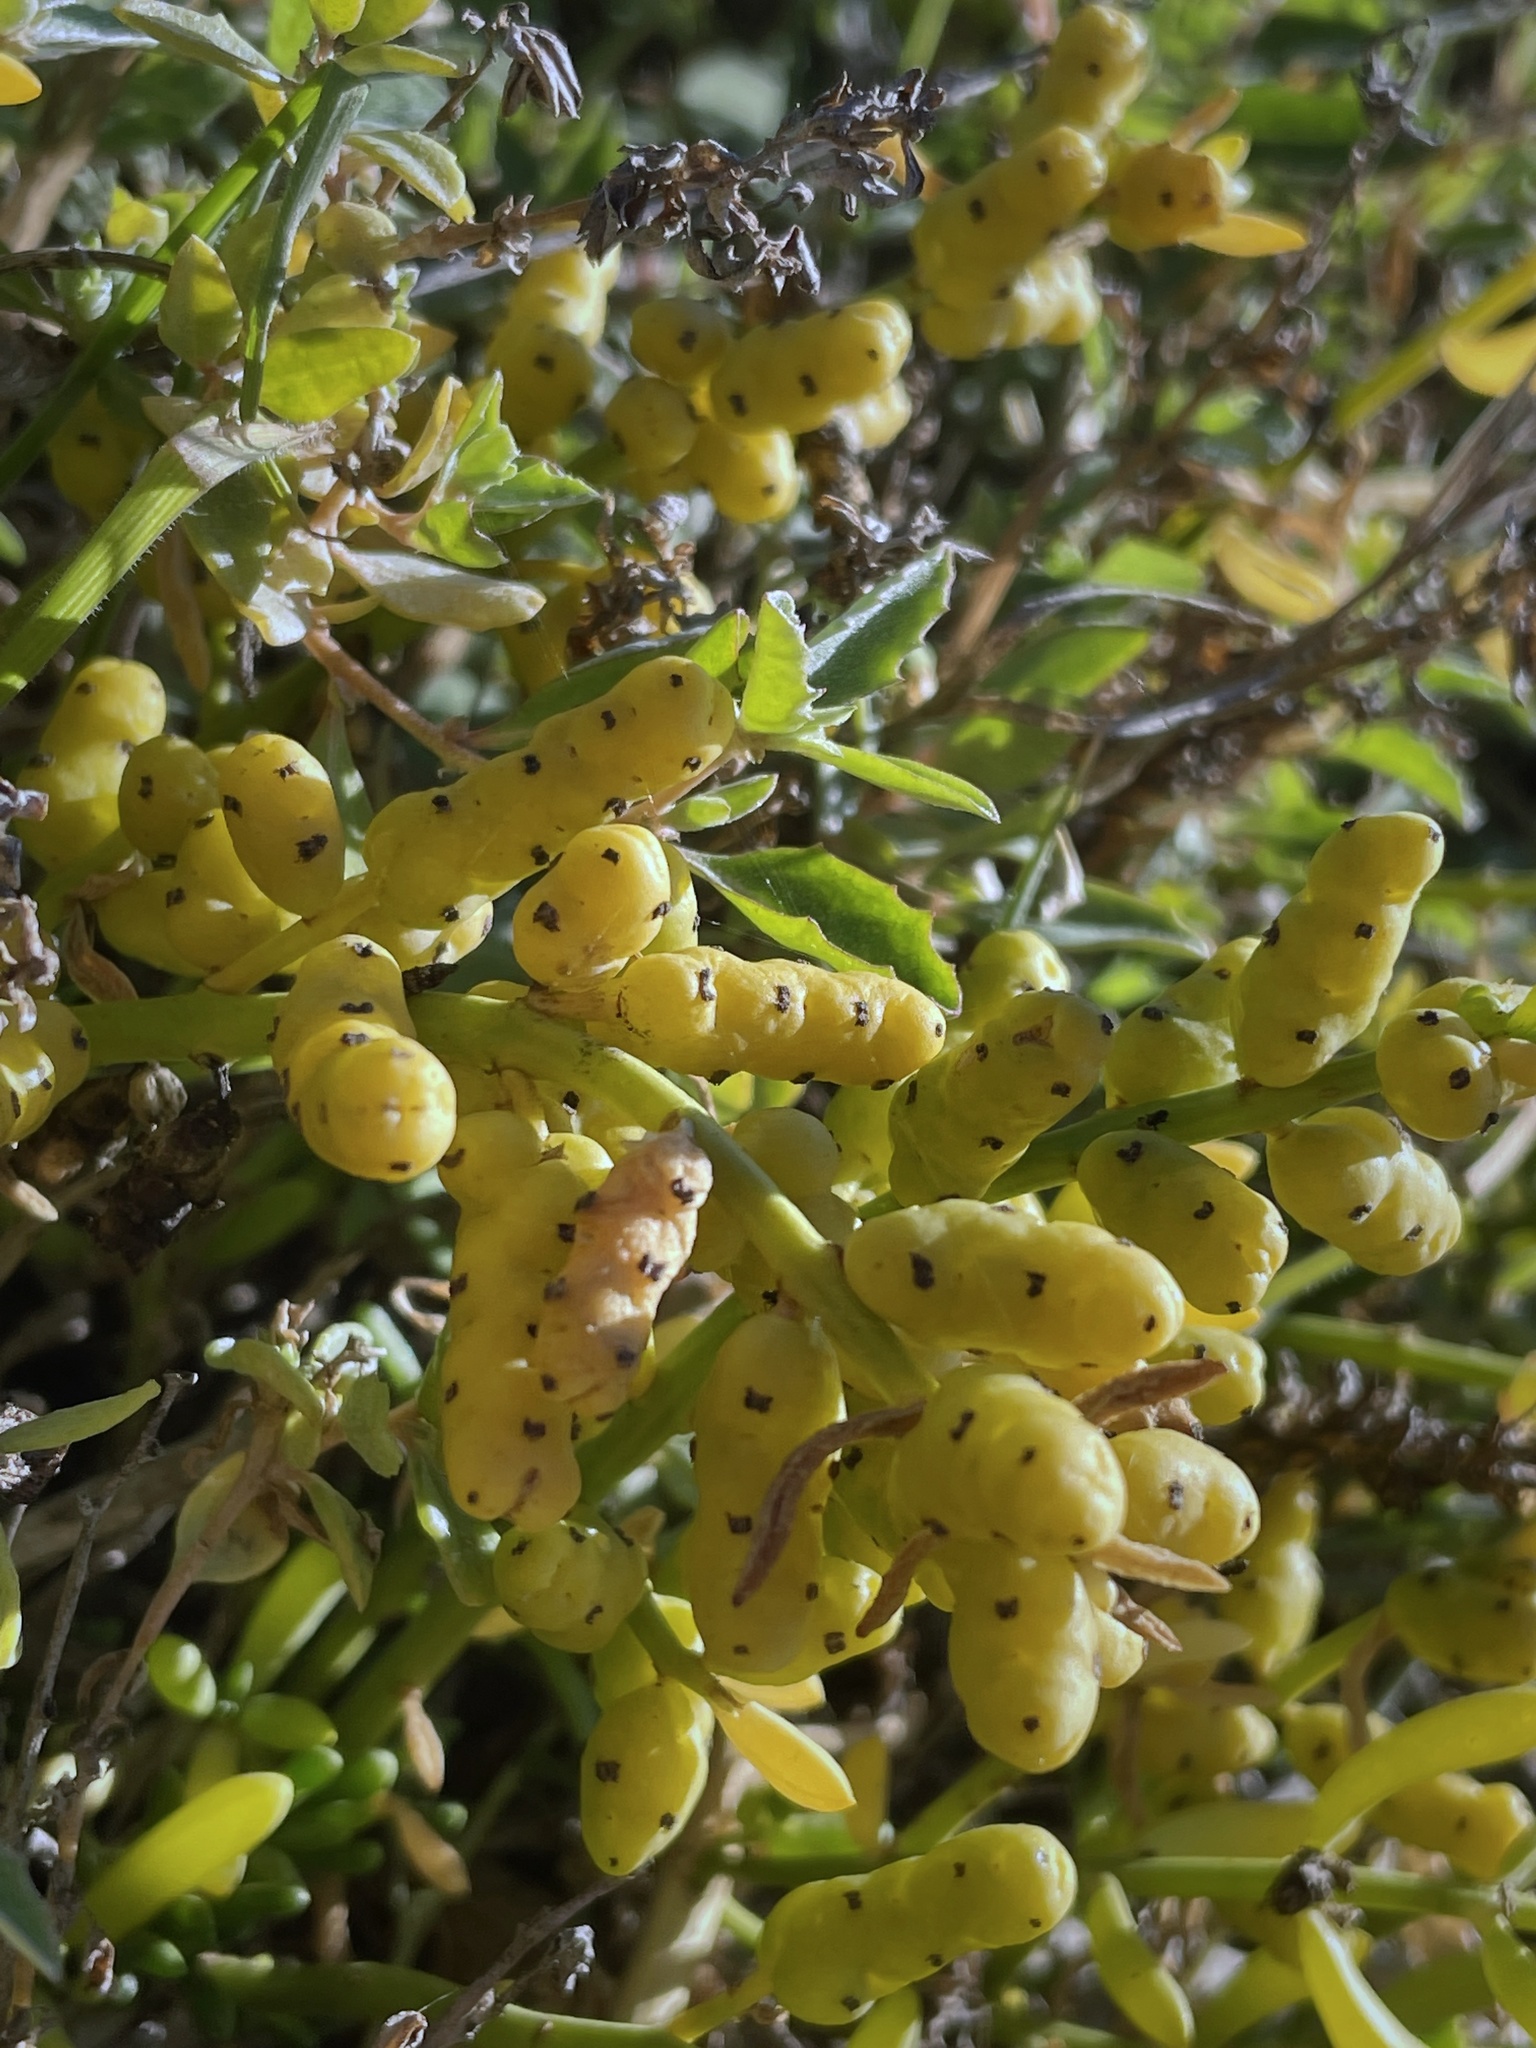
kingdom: Plantae
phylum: Tracheophyta
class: Magnoliopsida
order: Brassicales
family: Bataceae
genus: Batis
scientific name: Batis maritima
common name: Turtleweed
